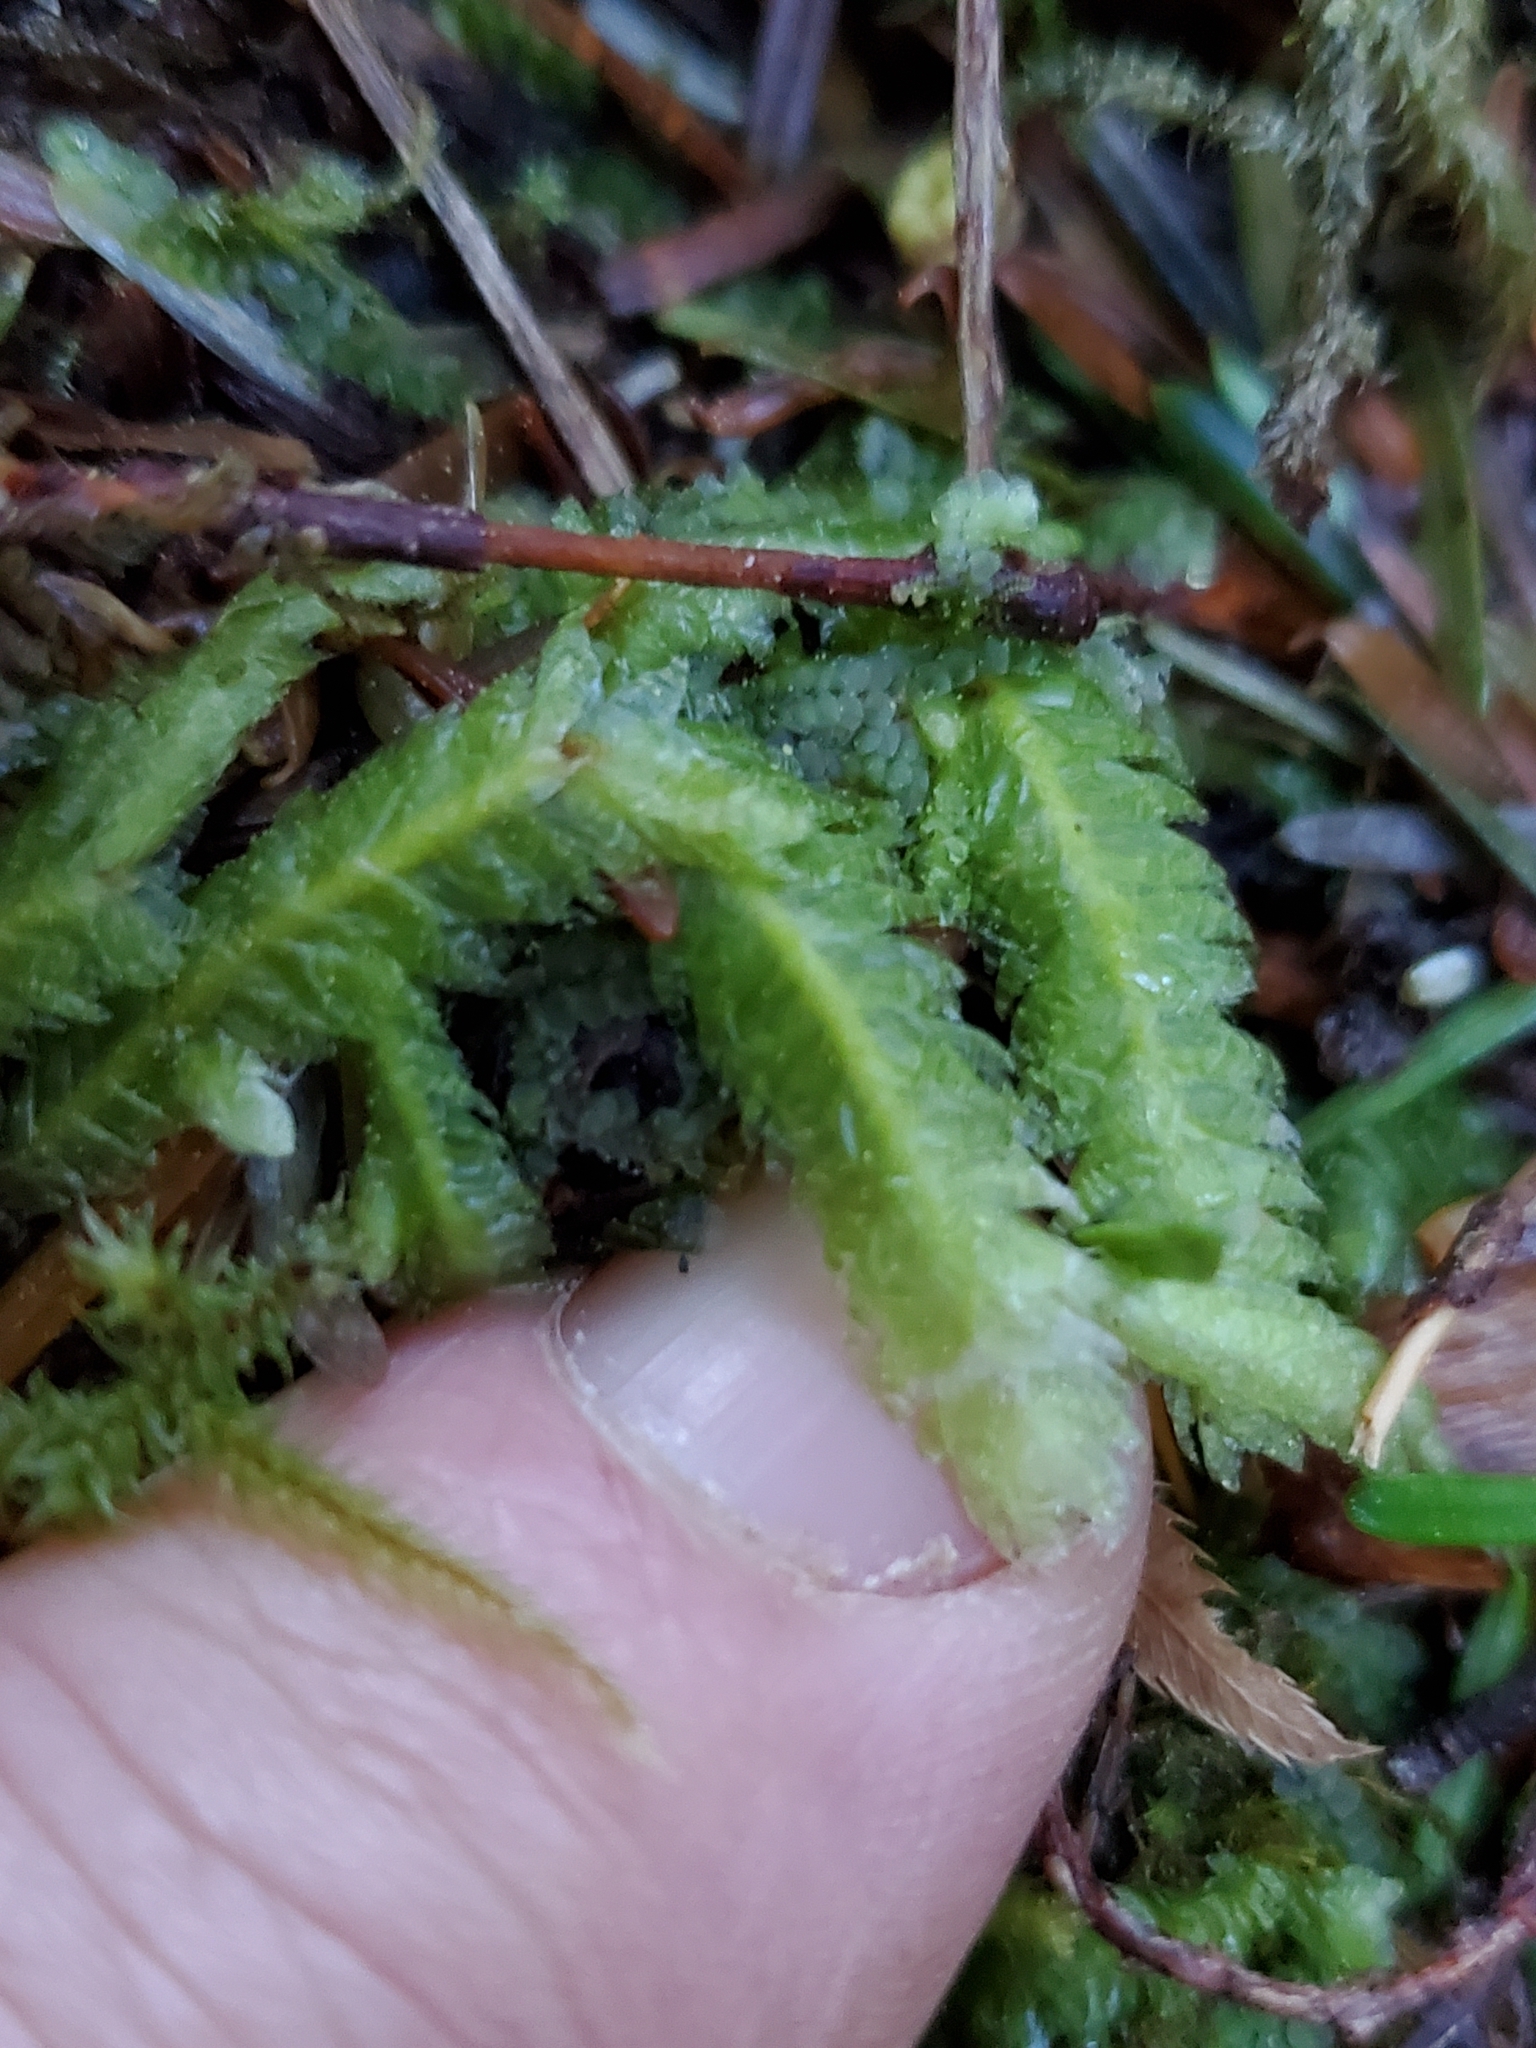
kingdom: Plantae
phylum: Bryophyta
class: Bryopsida
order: Hypnales
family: Plagiotheciaceae
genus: Plagiothecium
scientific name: Plagiothecium undulatum
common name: Waved silk-moss
